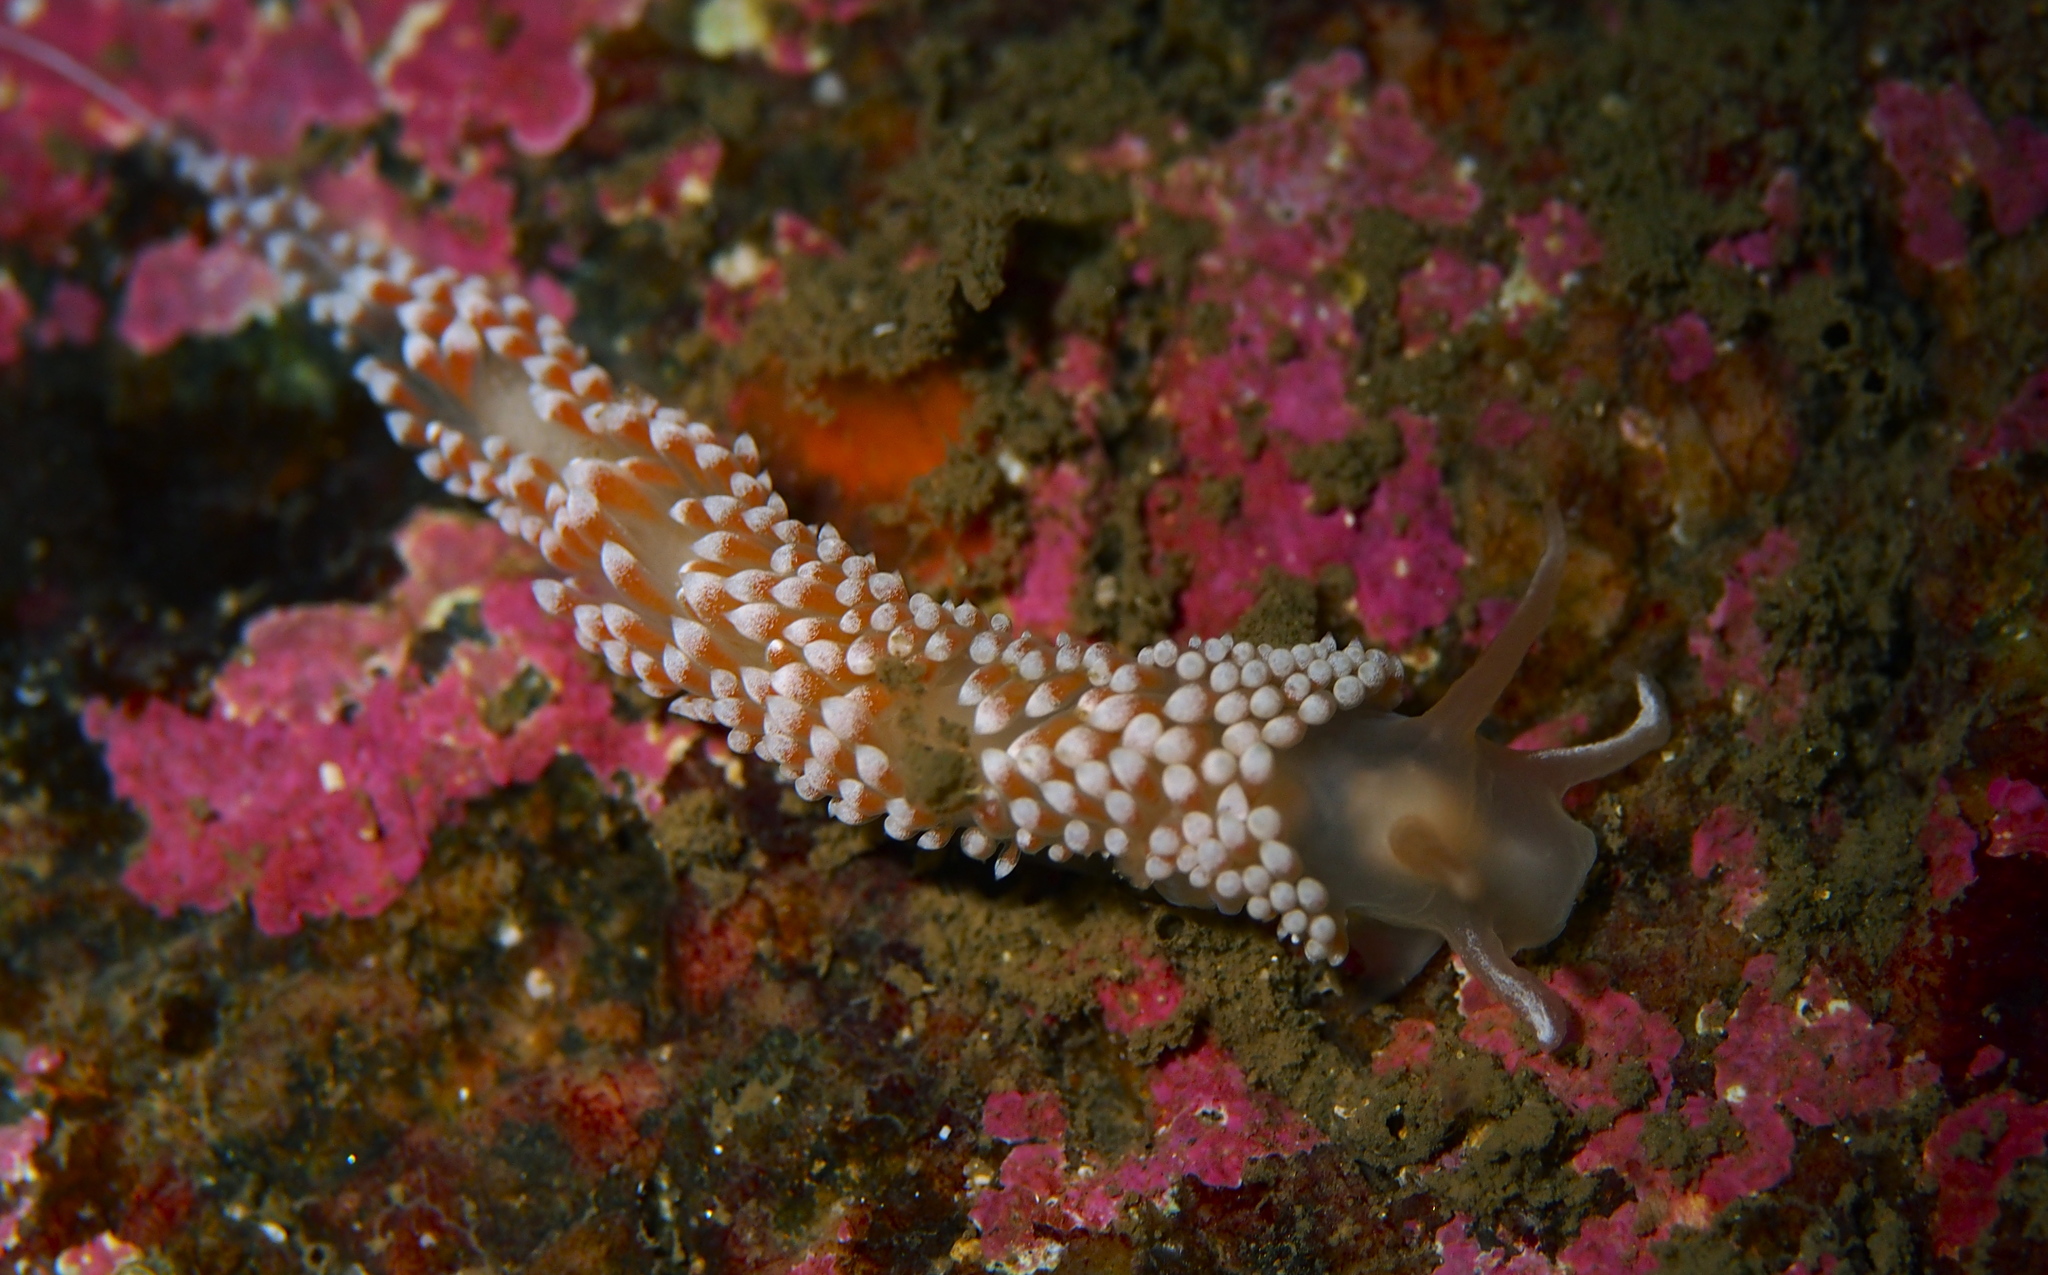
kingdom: Animalia
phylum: Mollusca
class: Gastropoda
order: Nudibranchia
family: Coryphellidae
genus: Coryphella
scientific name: Coryphella verrucosa
